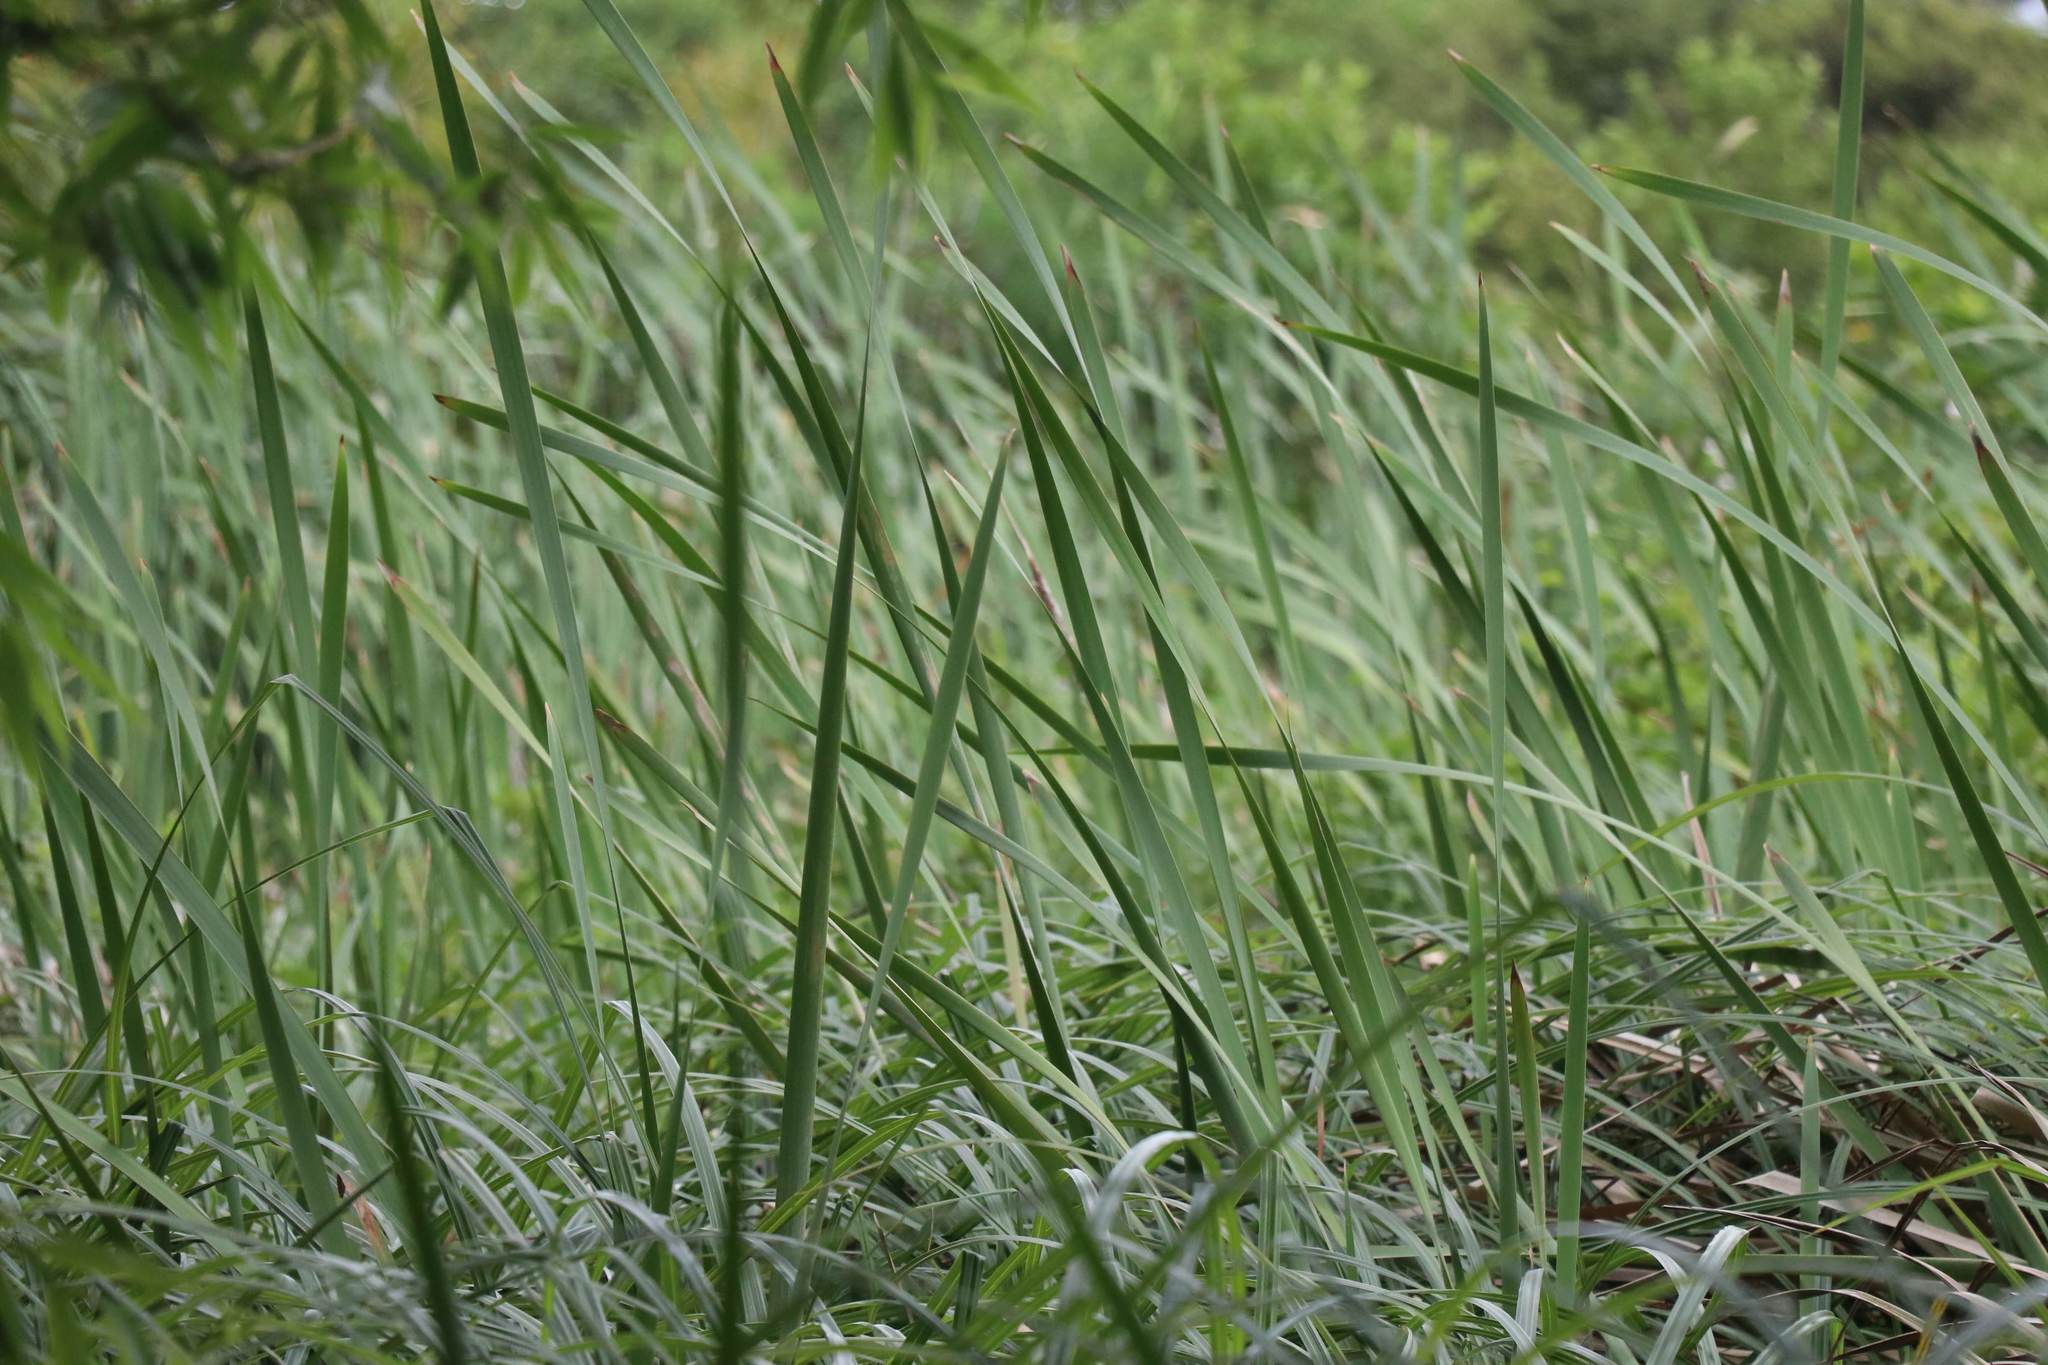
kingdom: Plantae
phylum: Tracheophyta
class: Liliopsida
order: Poales
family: Typhaceae
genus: Typha
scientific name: Typha orientalis
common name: Bullrush
